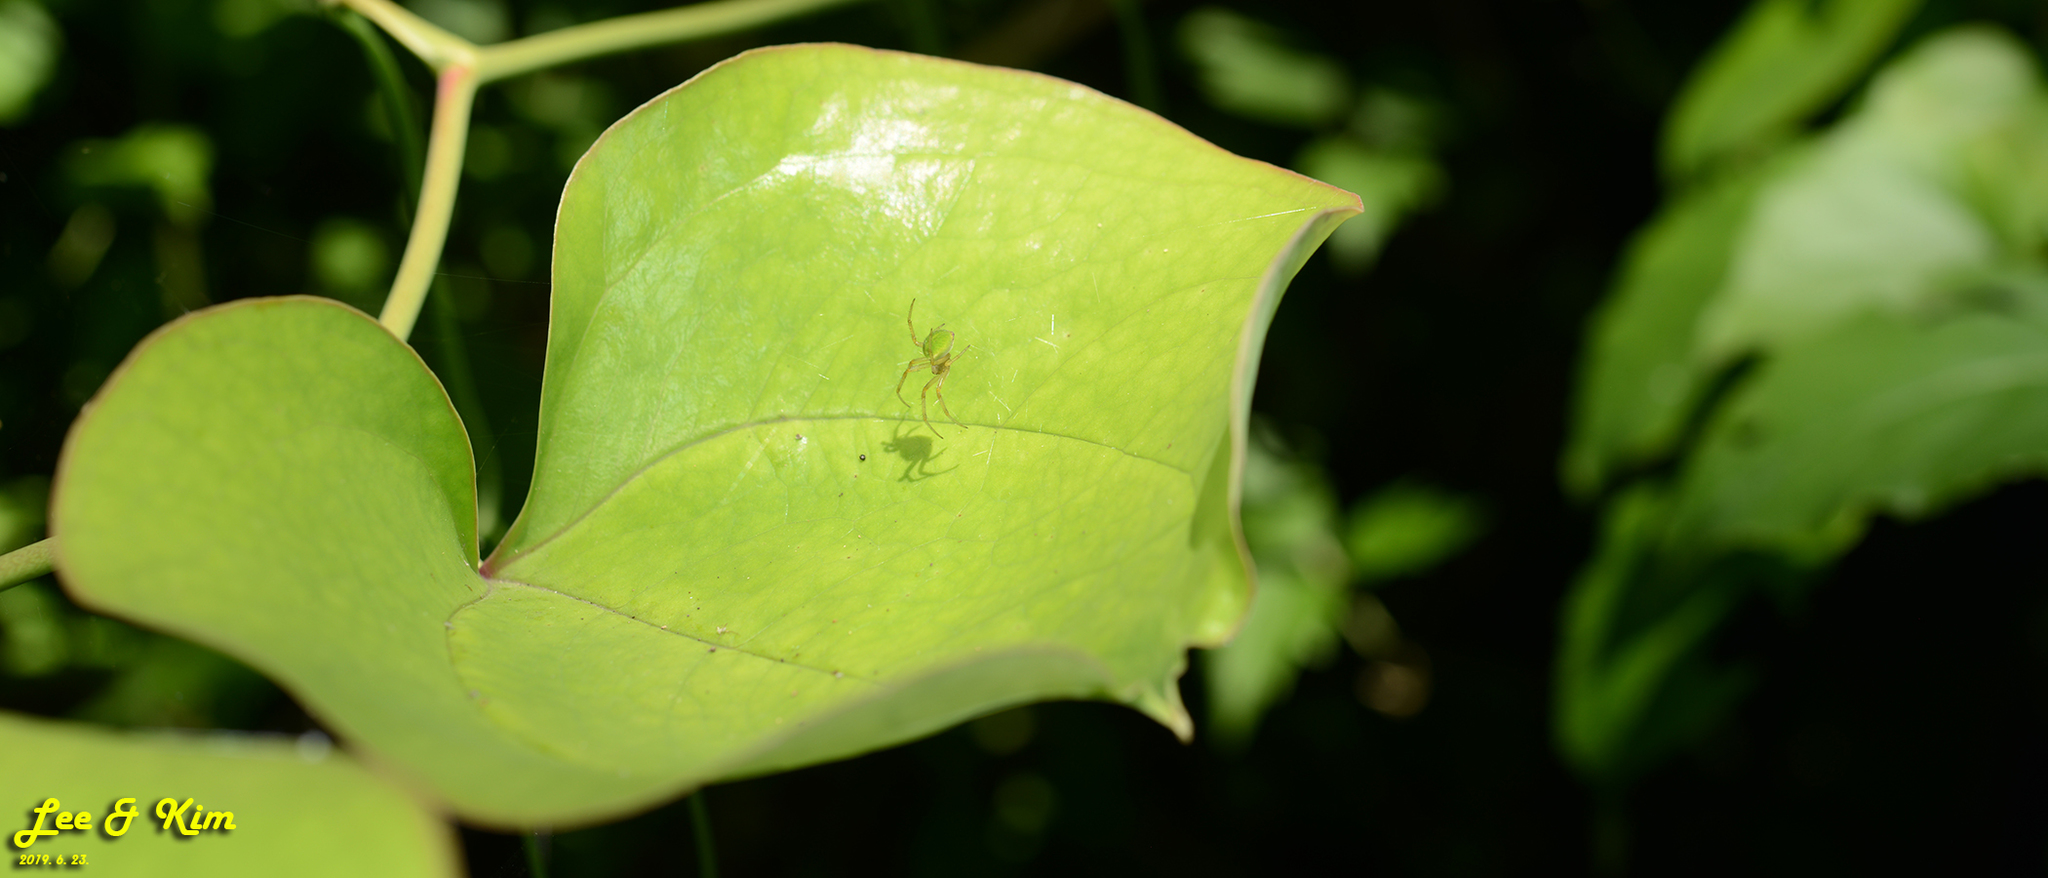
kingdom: Animalia
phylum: Arthropoda
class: Arachnida
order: Araneae
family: Araneidae
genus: Neoscona
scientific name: Neoscona scylloides
